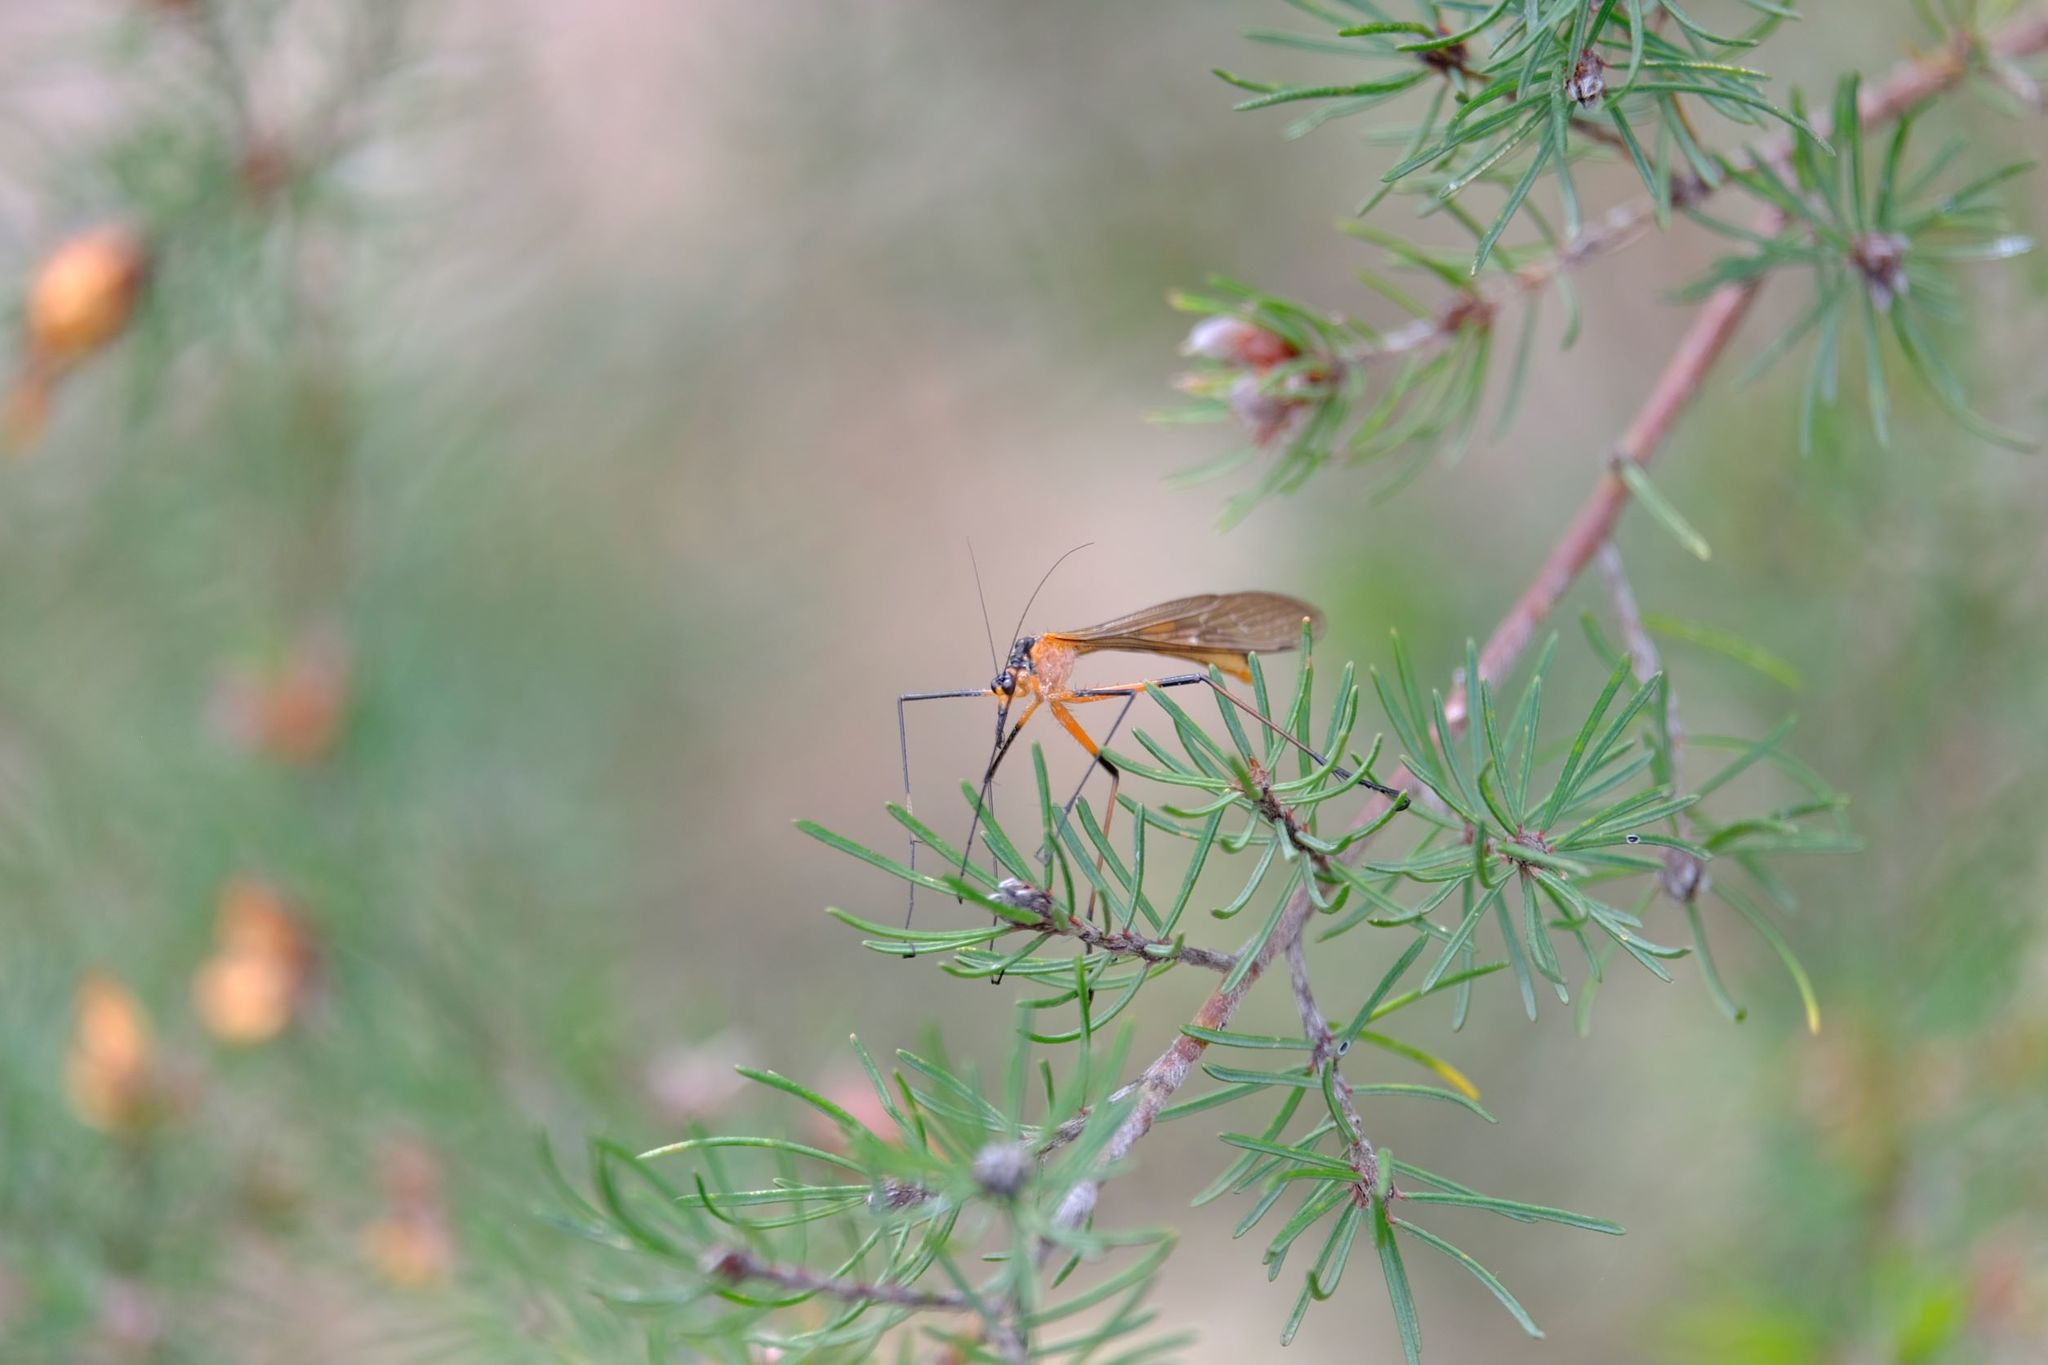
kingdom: Animalia
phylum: Arthropoda
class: Insecta
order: Mecoptera
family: Bittacidae
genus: Harpobittacus
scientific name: Harpobittacus australis
